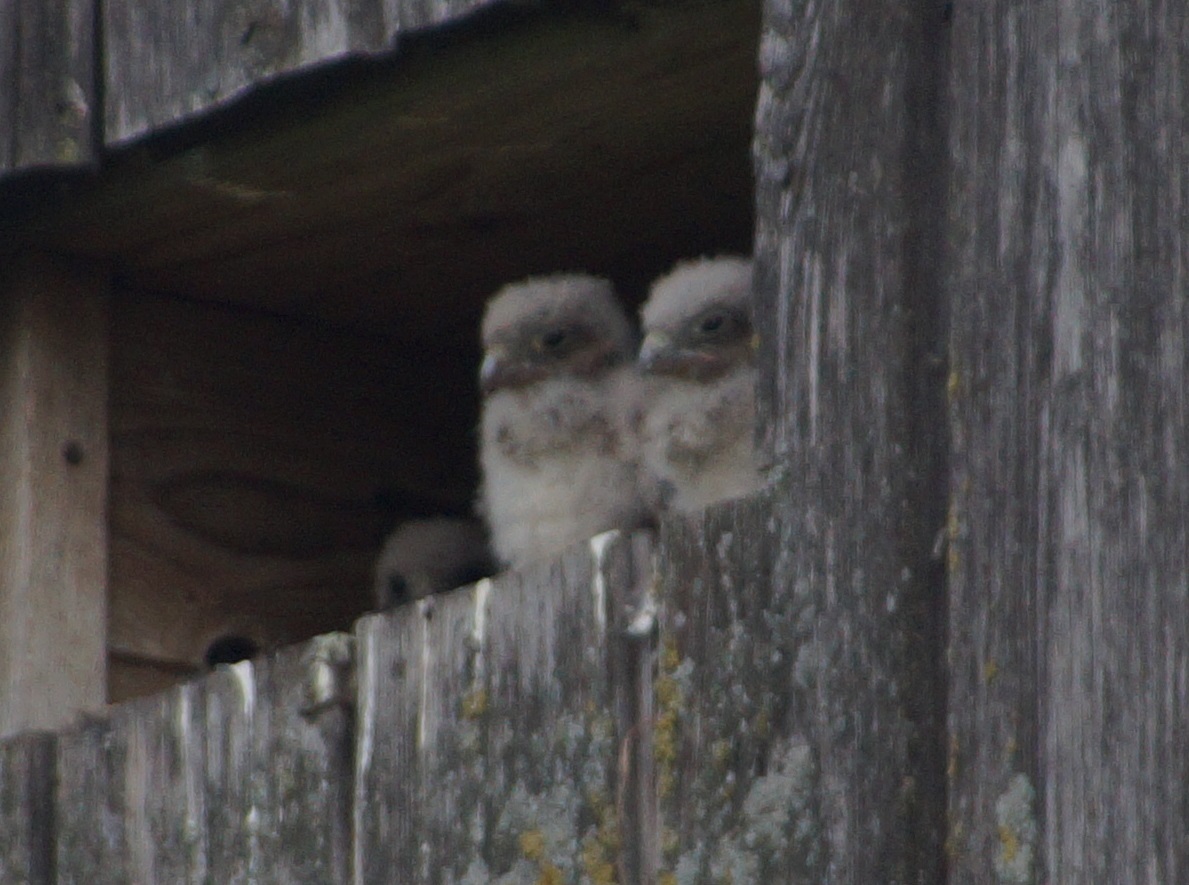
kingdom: Animalia
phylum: Chordata
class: Aves
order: Falconiformes
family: Falconidae
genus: Falco
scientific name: Falco tinnunculus
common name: Common kestrel
